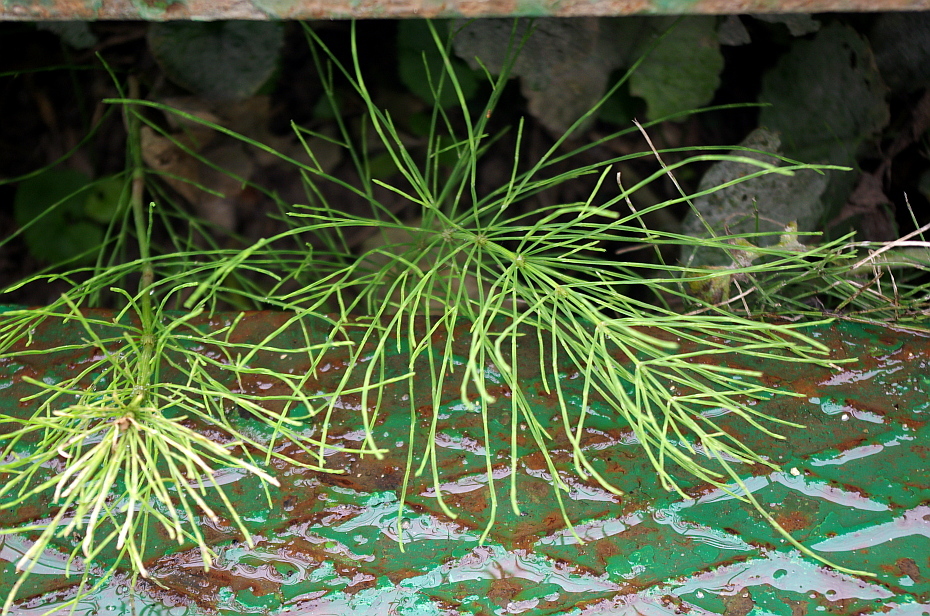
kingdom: Plantae
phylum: Tracheophyta
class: Polypodiopsida
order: Equisetales
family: Equisetaceae
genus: Equisetum
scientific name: Equisetum arvense
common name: Field horsetail
